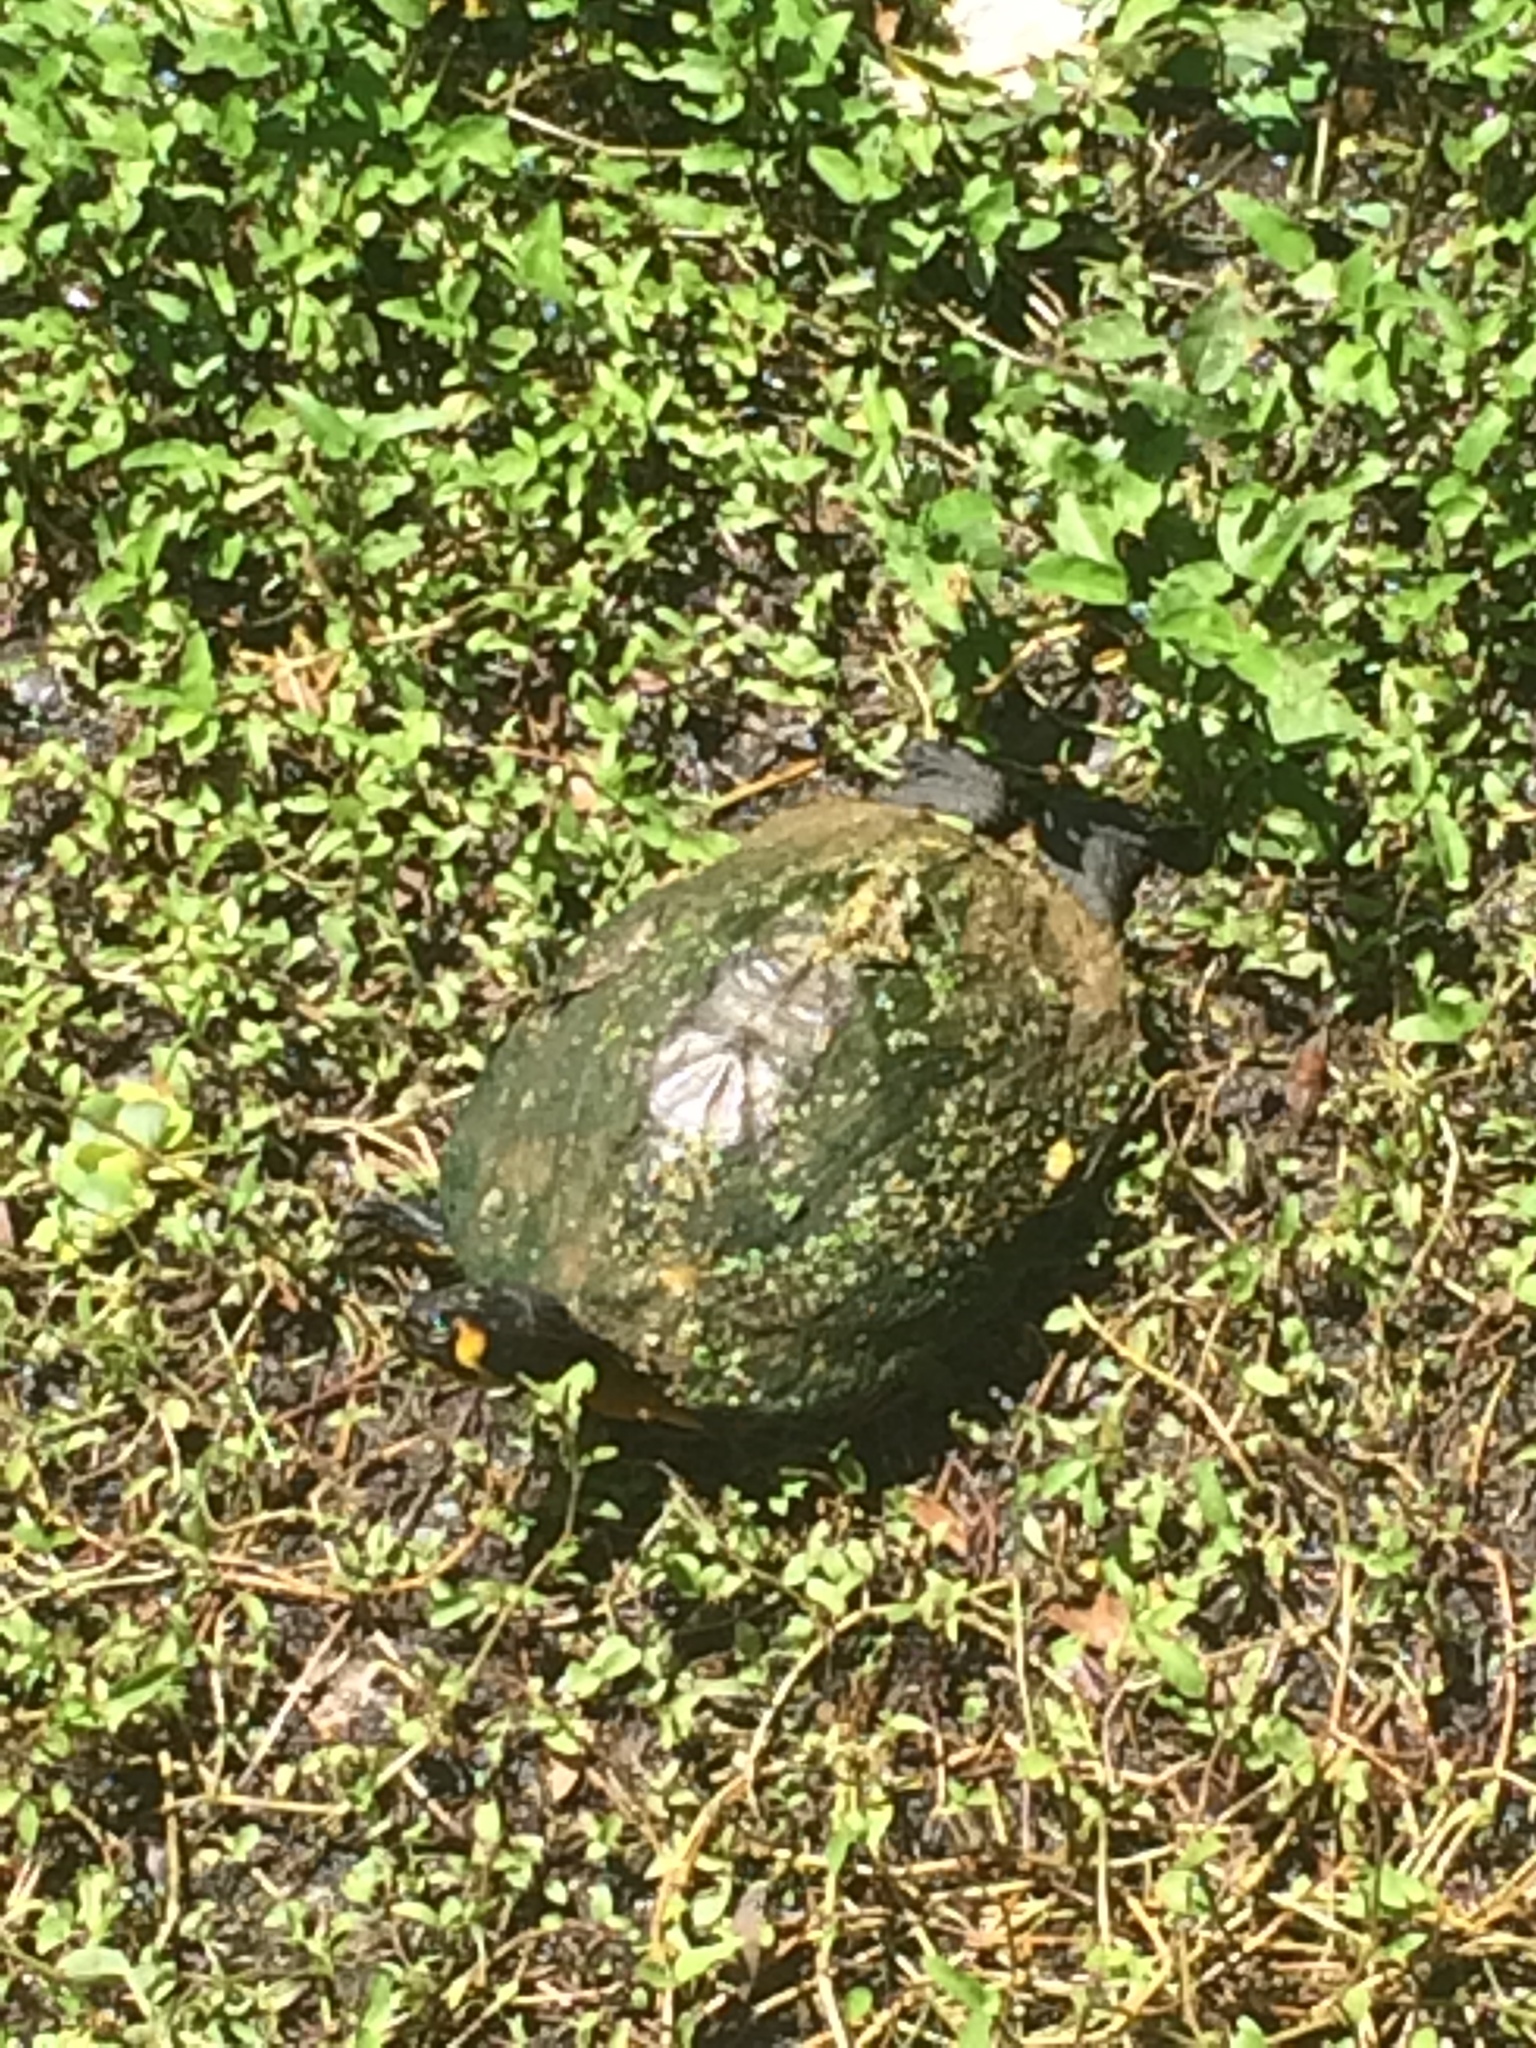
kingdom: Animalia
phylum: Chordata
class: Testudines
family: Emydidae
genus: Trachemys
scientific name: Trachemys scripta
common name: Slider
